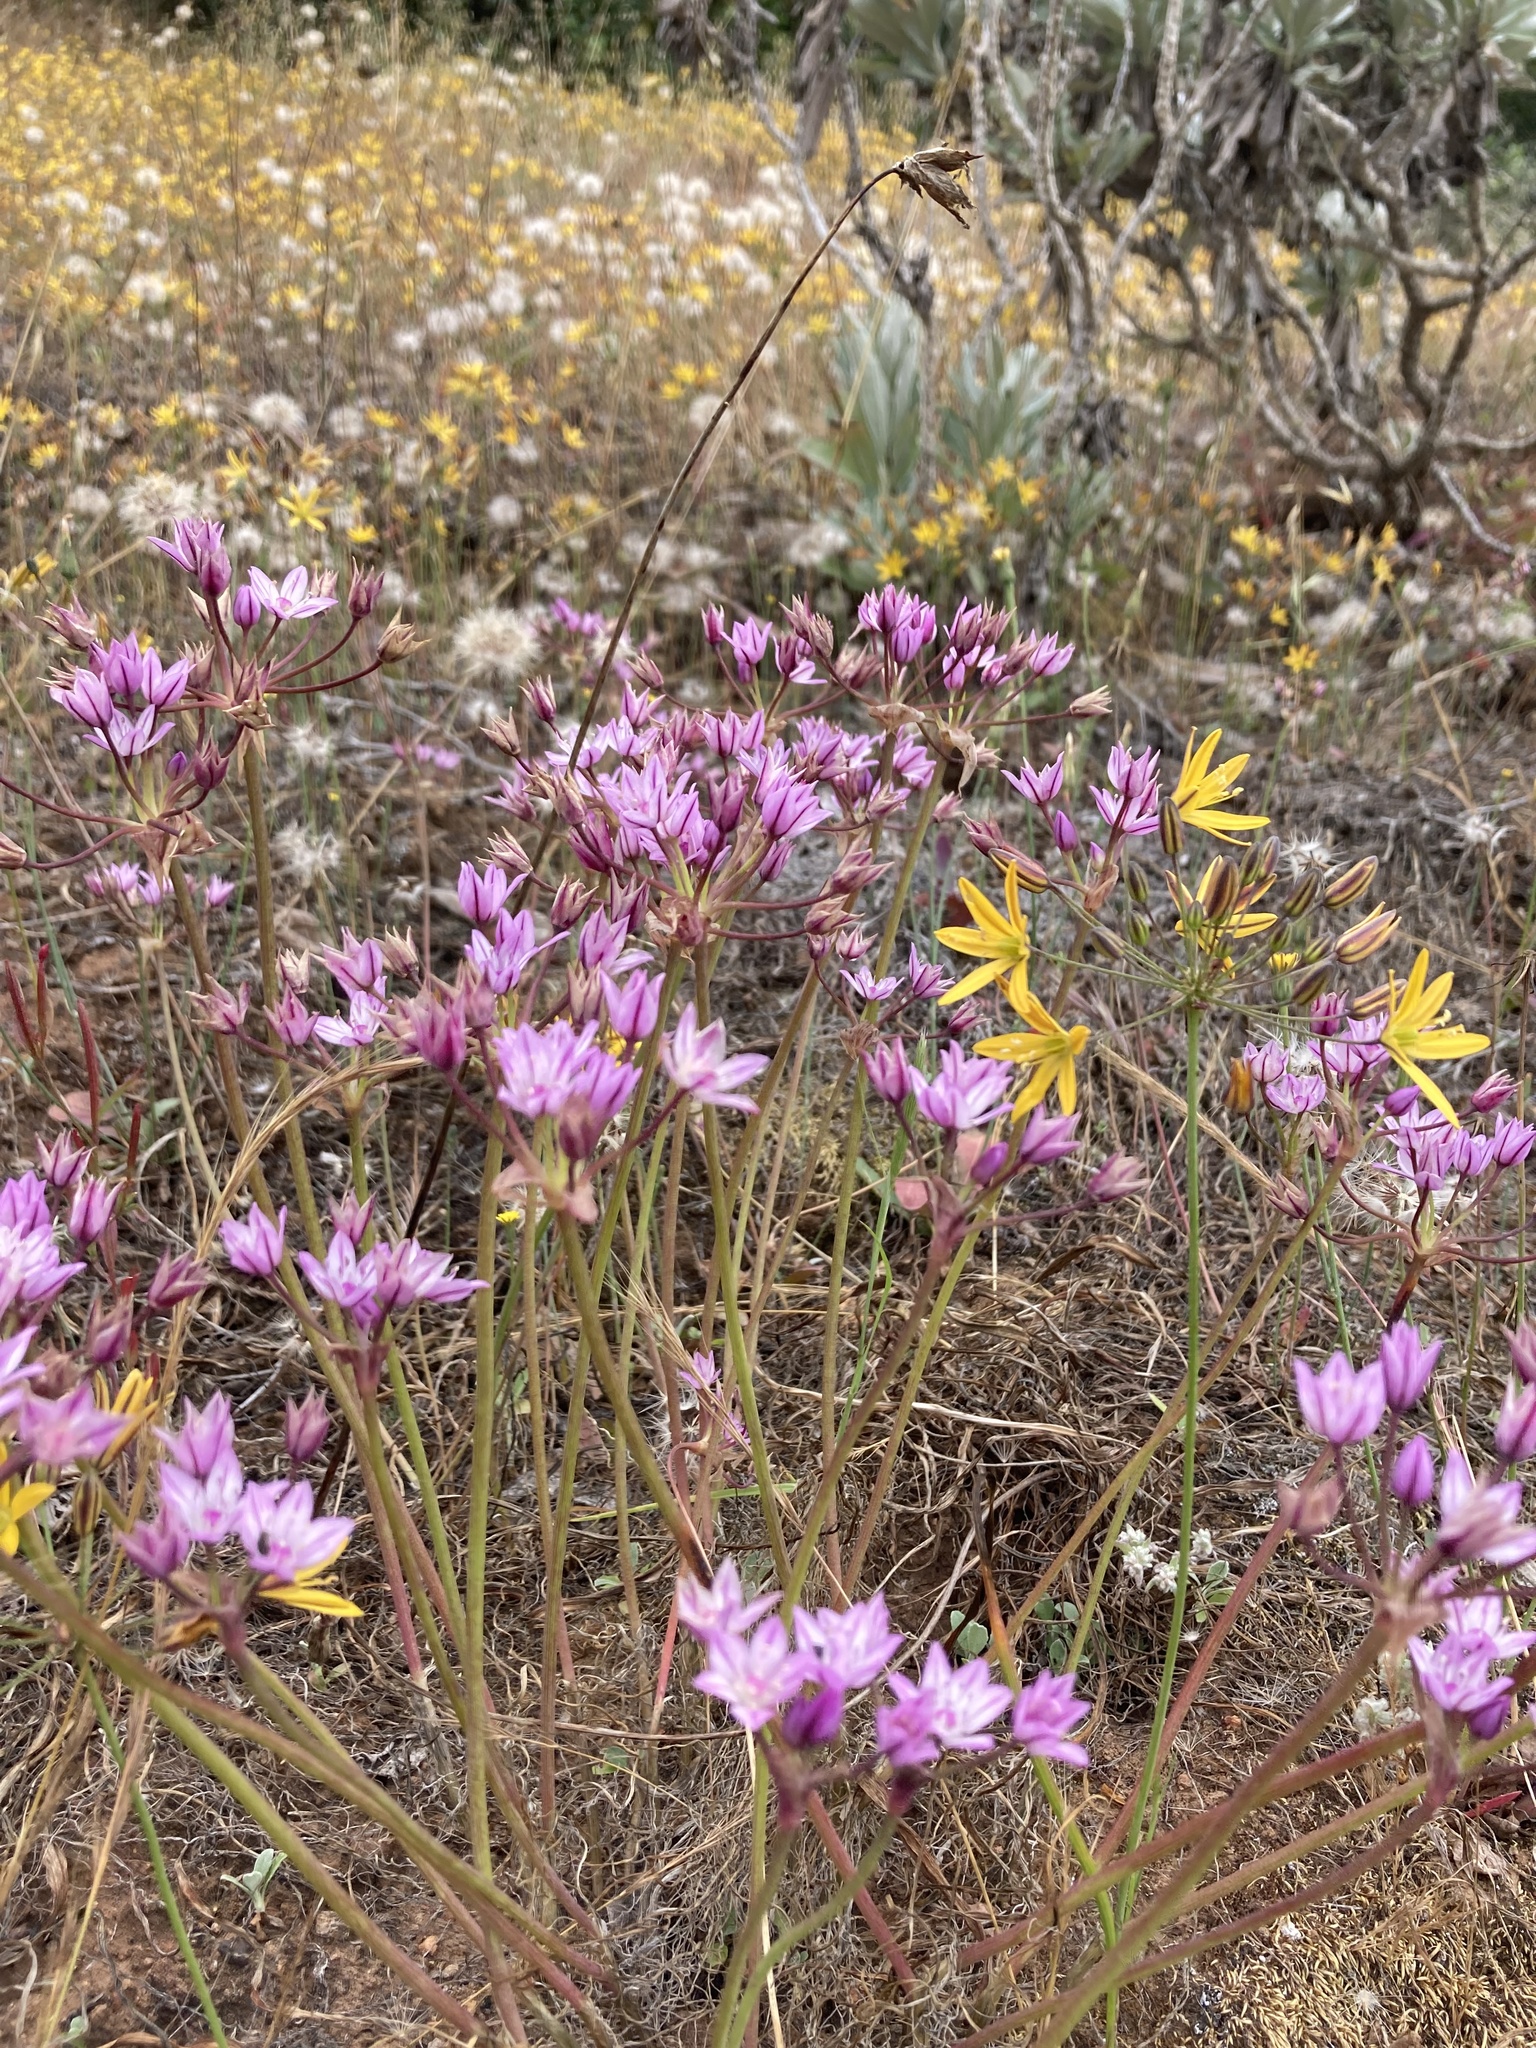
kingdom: Plantae
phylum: Tracheophyta
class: Liliopsida
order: Asparagales
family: Amaryllidaceae
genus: Allium
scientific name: Allium praecox
